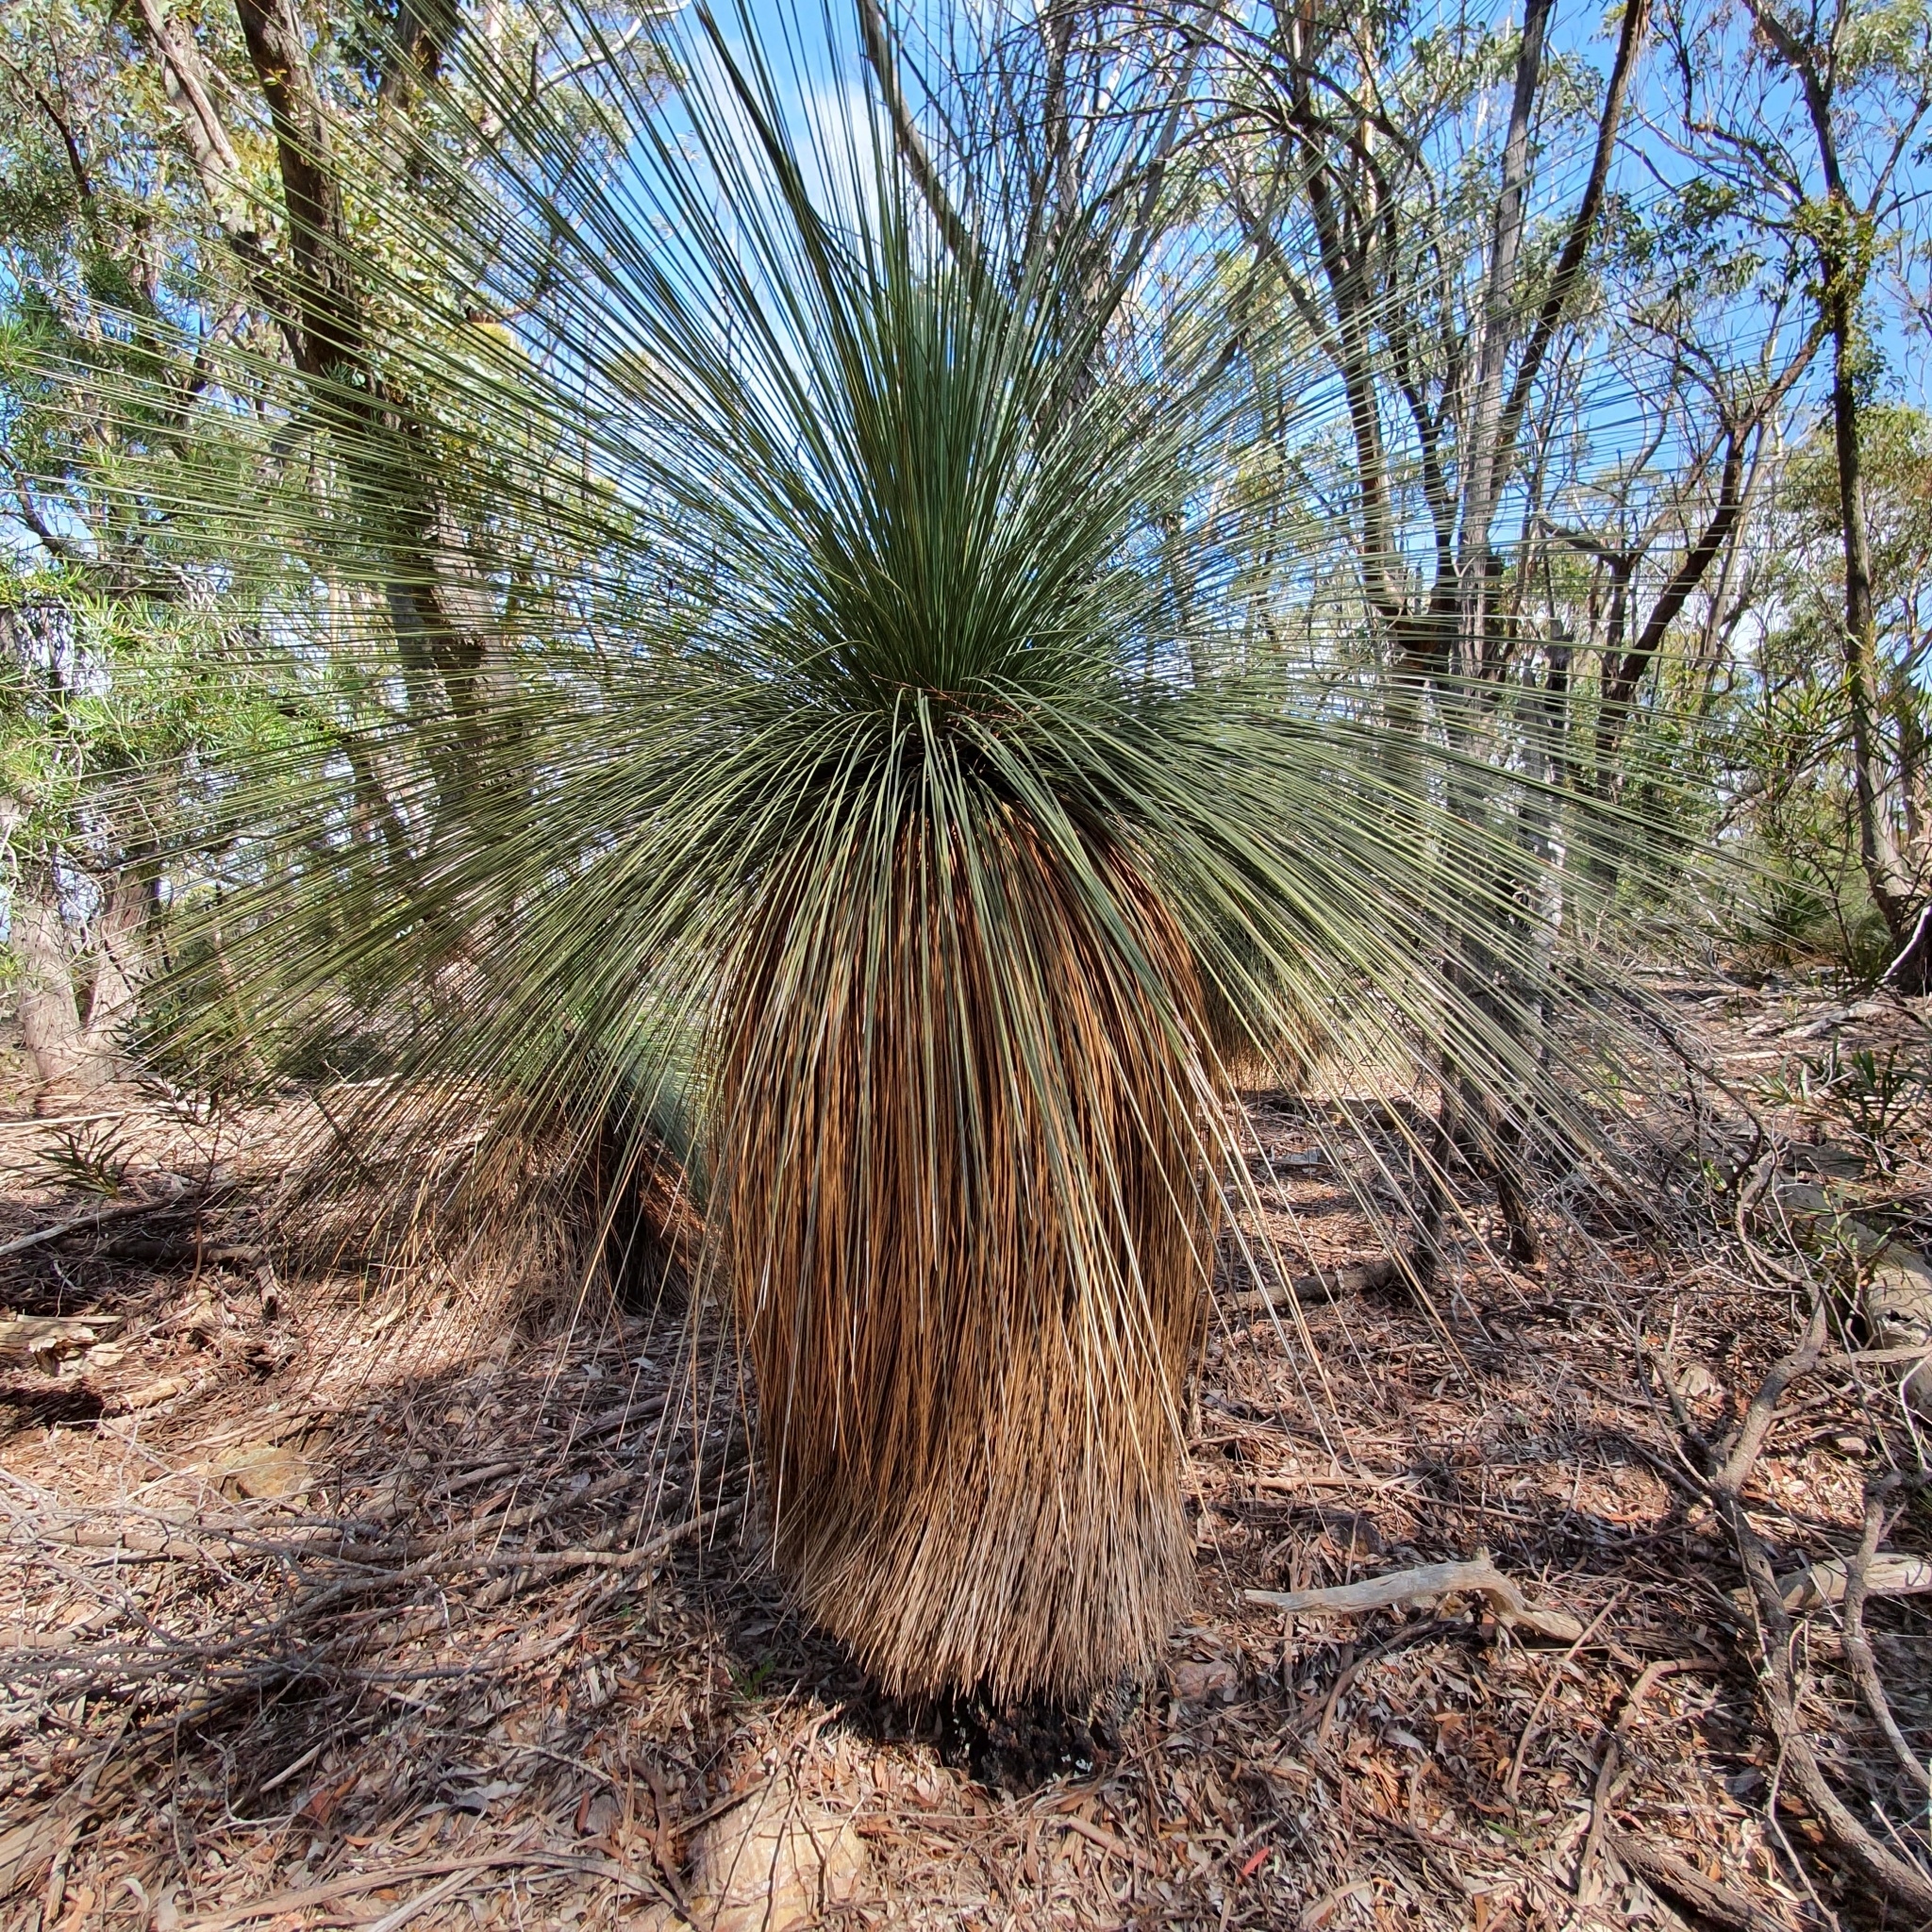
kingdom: Plantae
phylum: Tracheophyta
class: Liliopsida
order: Asparagales
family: Asphodelaceae
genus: Xanthorrhoea
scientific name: Xanthorrhoea glauca
